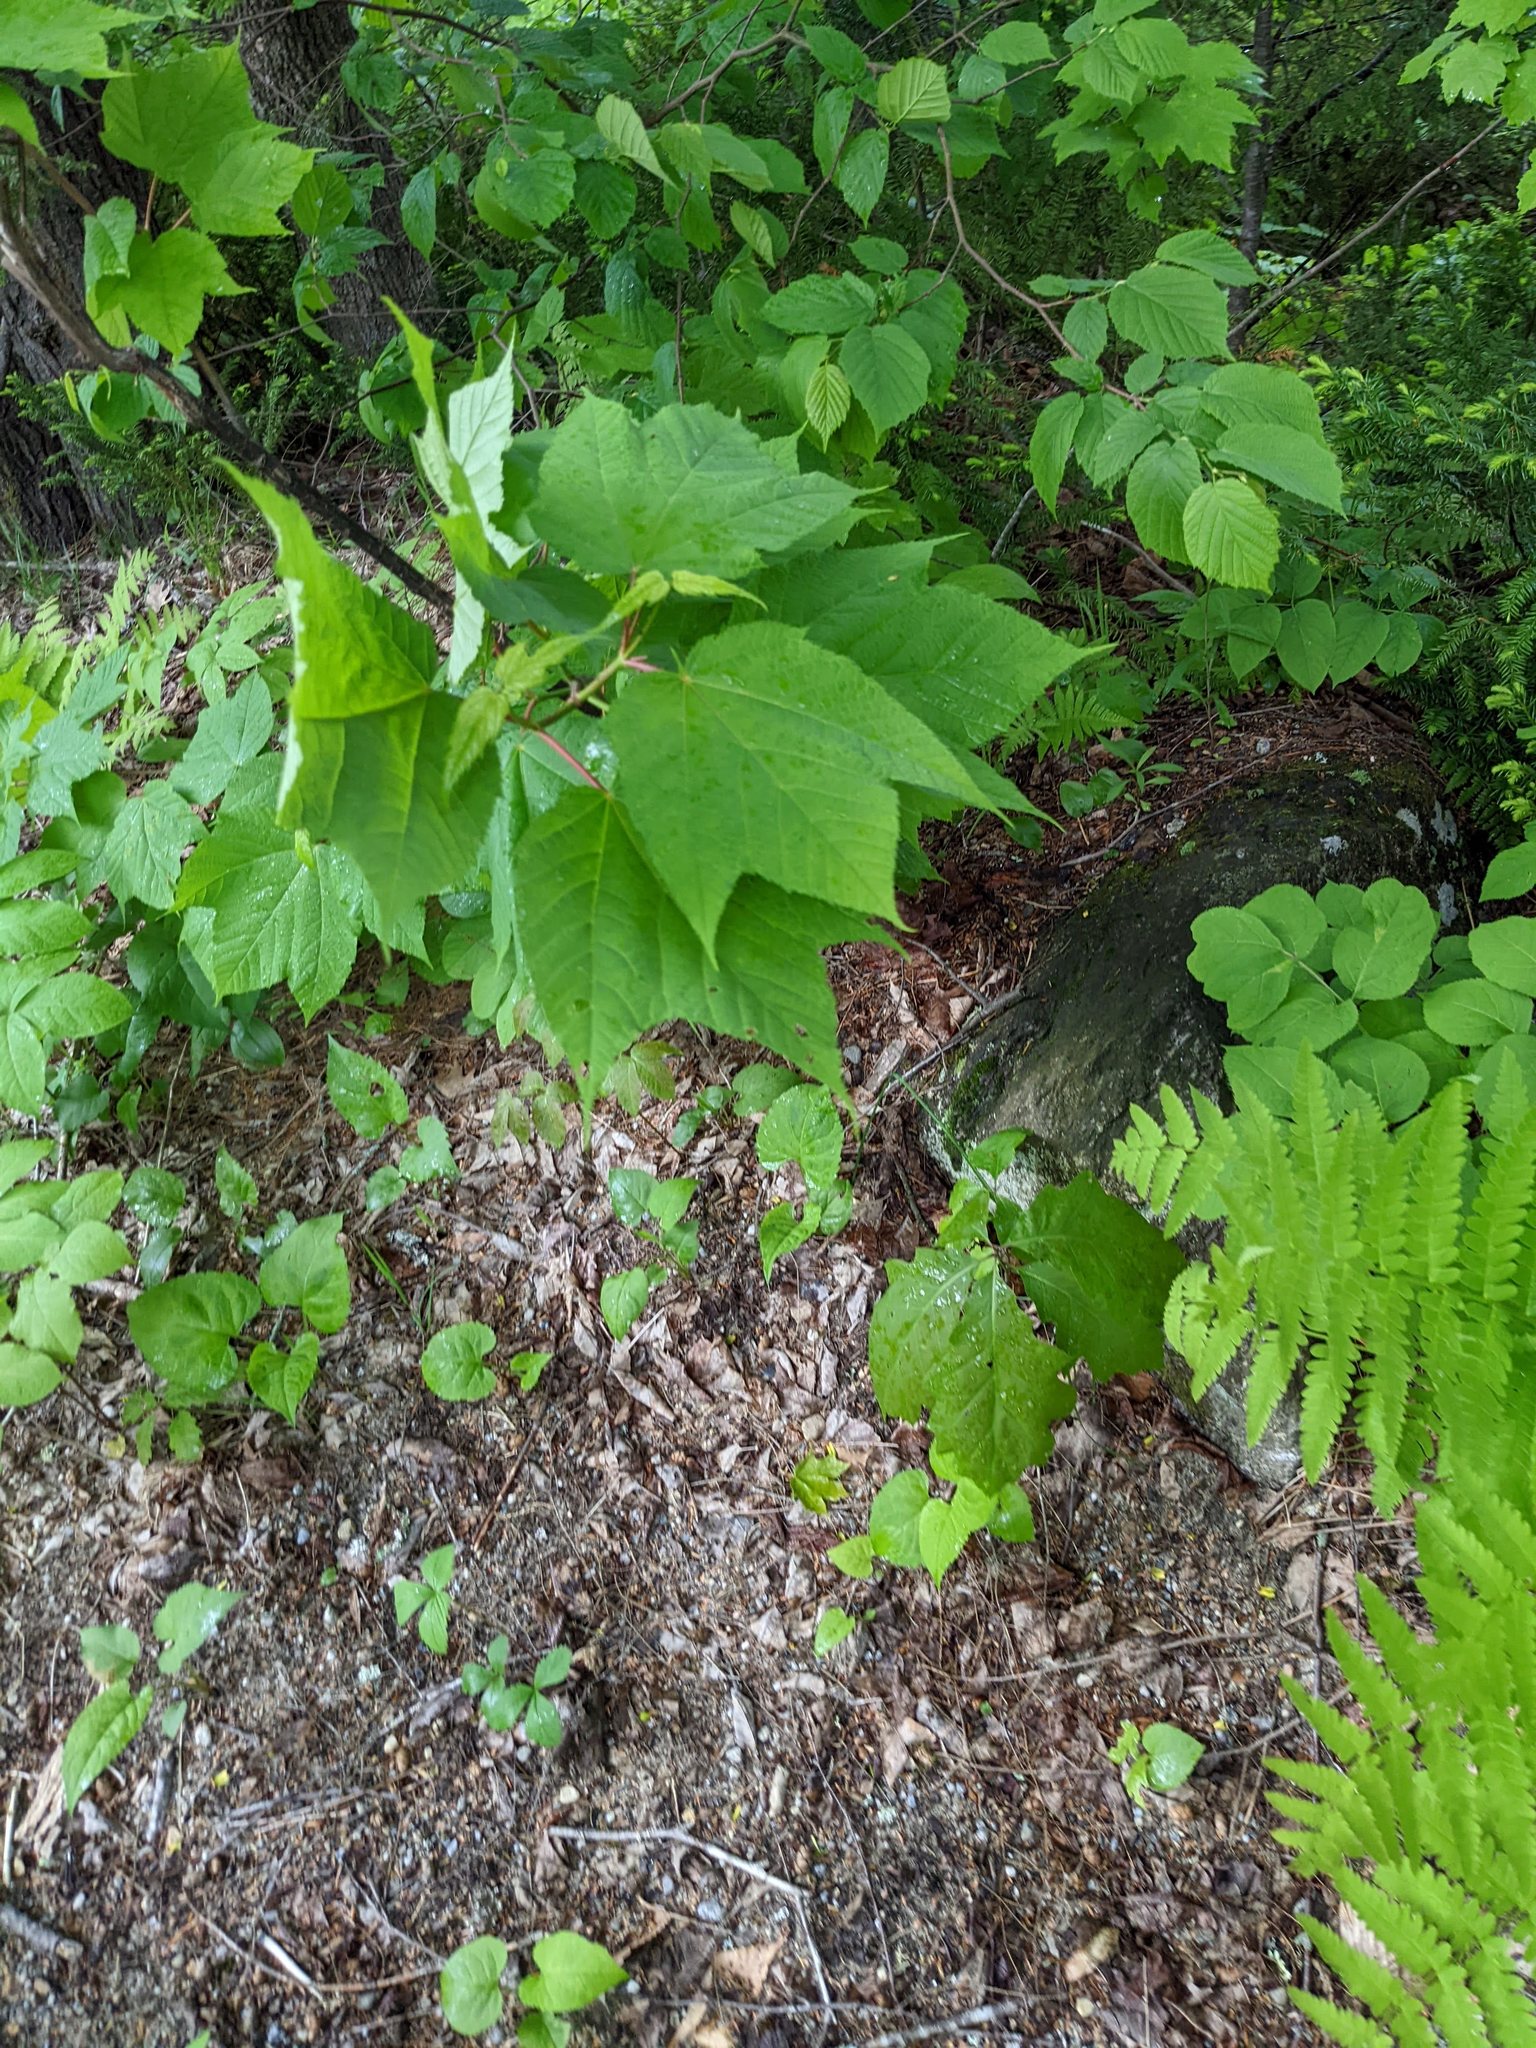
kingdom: Plantae
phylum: Tracheophyta
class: Magnoliopsida
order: Sapindales
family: Sapindaceae
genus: Acer
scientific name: Acer pensylvanicum
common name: Moosewood
